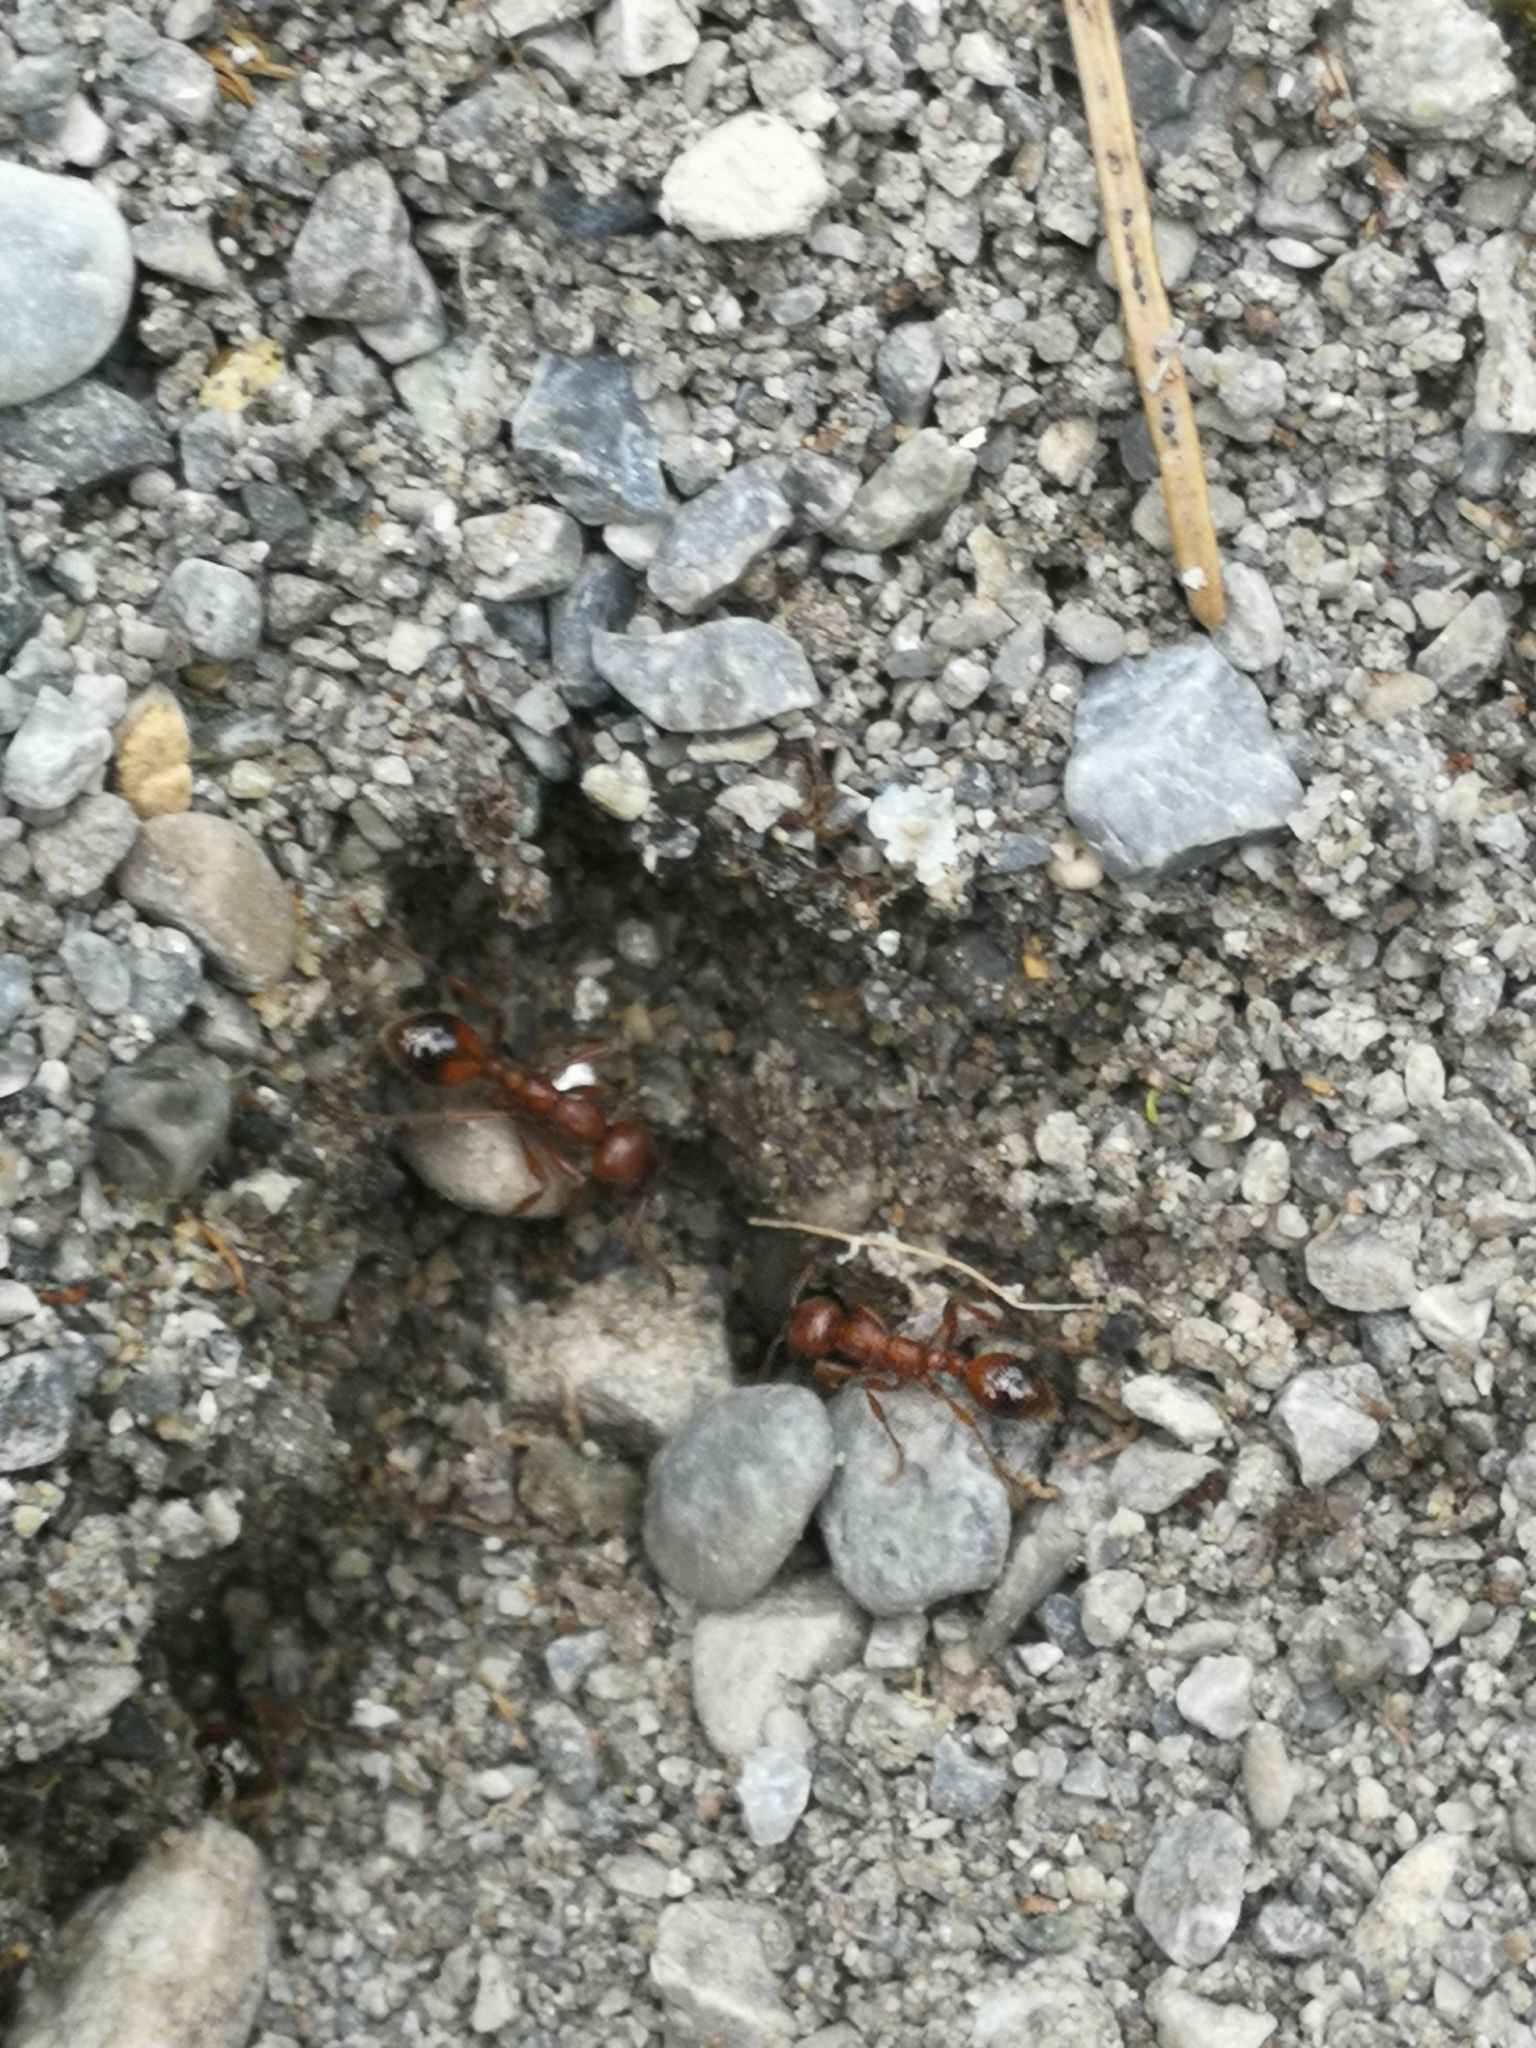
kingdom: Animalia
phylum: Arthropoda
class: Insecta
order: Hymenoptera
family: Formicidae
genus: Manica
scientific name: Manica rubida
